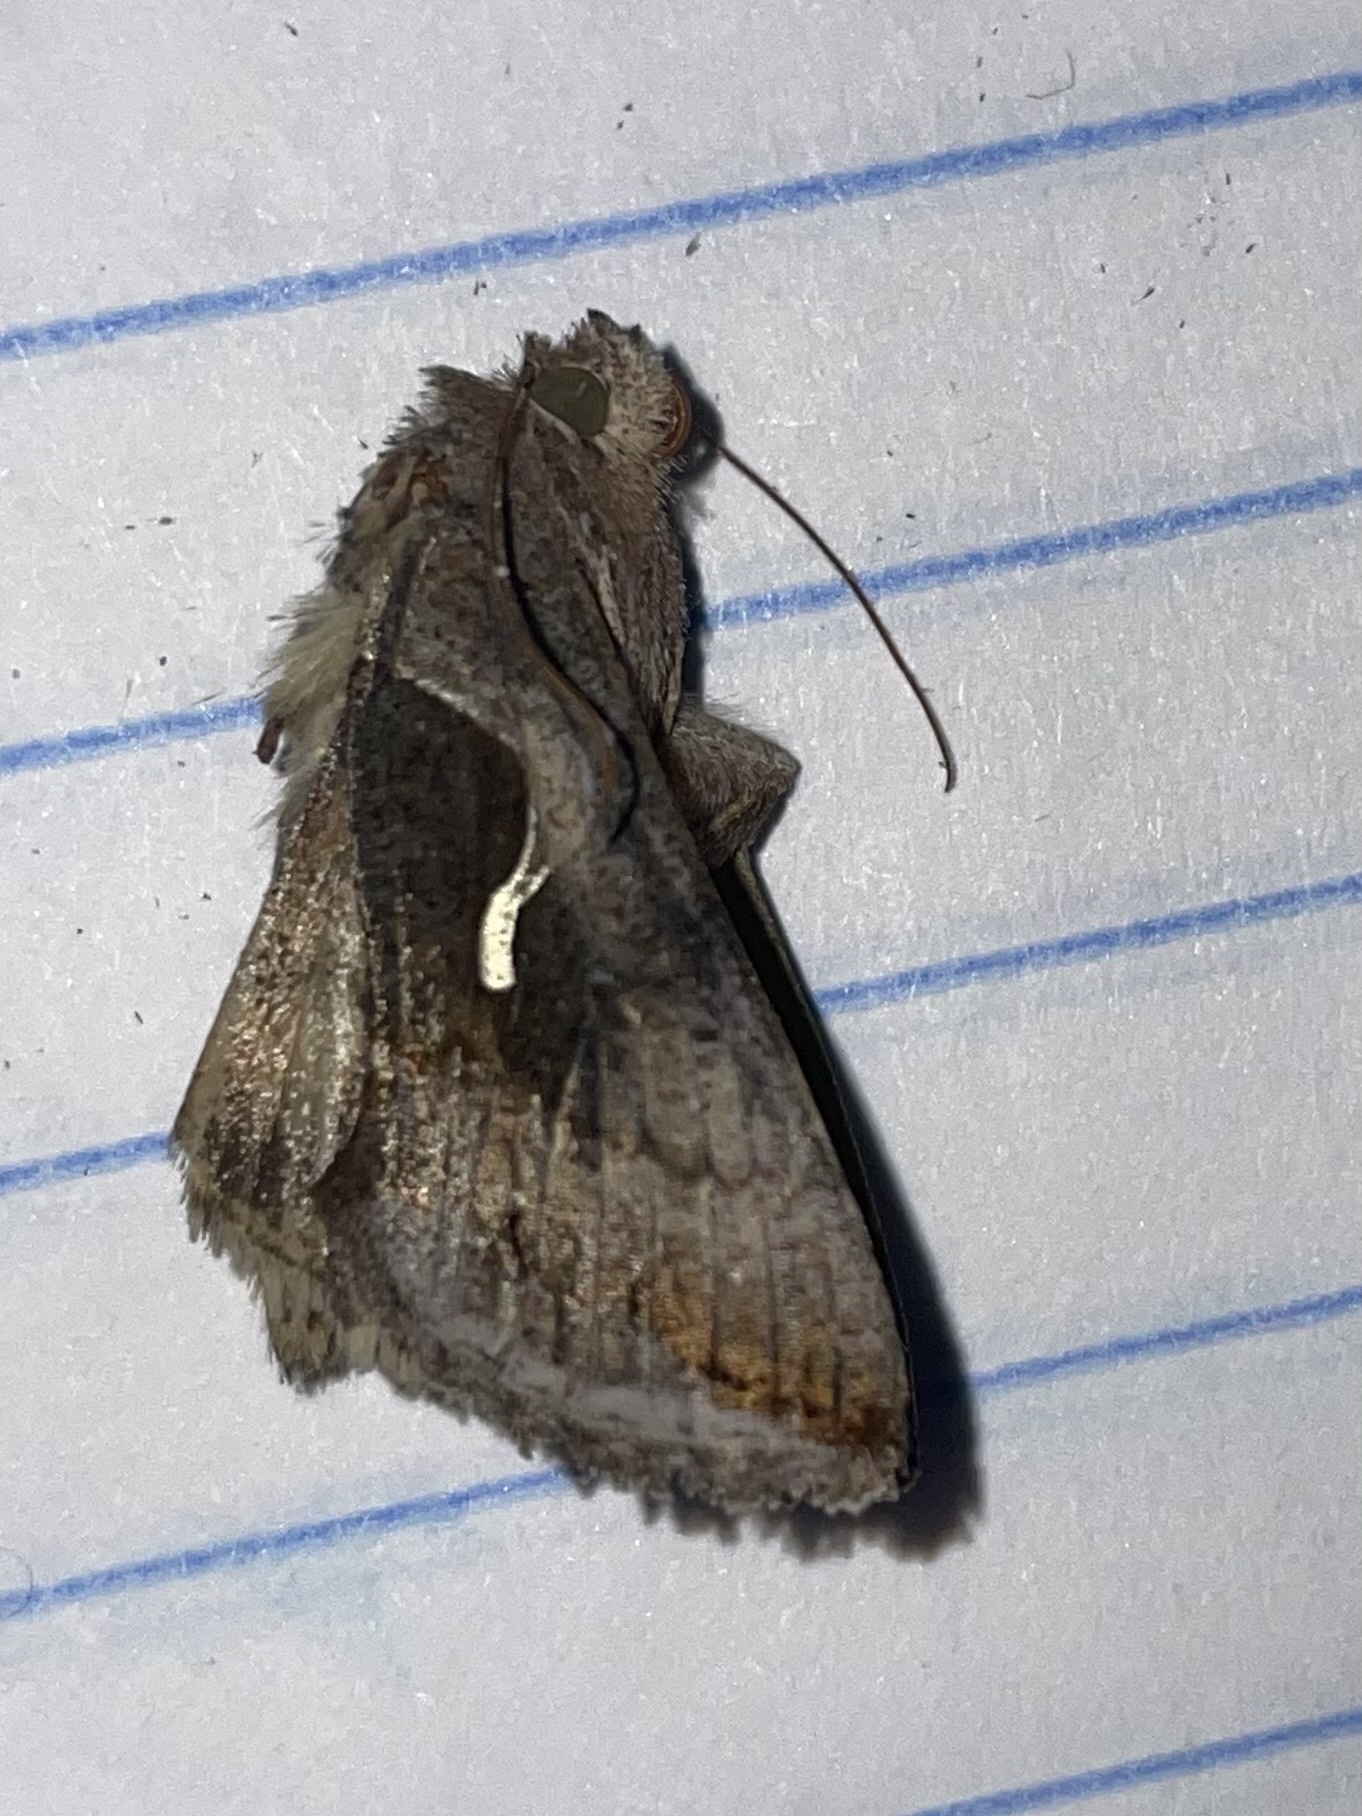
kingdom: Animalia
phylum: Arthropoda
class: Insecta
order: Lepidoptera
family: Noctuidae
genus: Anagrapha
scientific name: Anagrapha falcifera
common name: Celery looper
